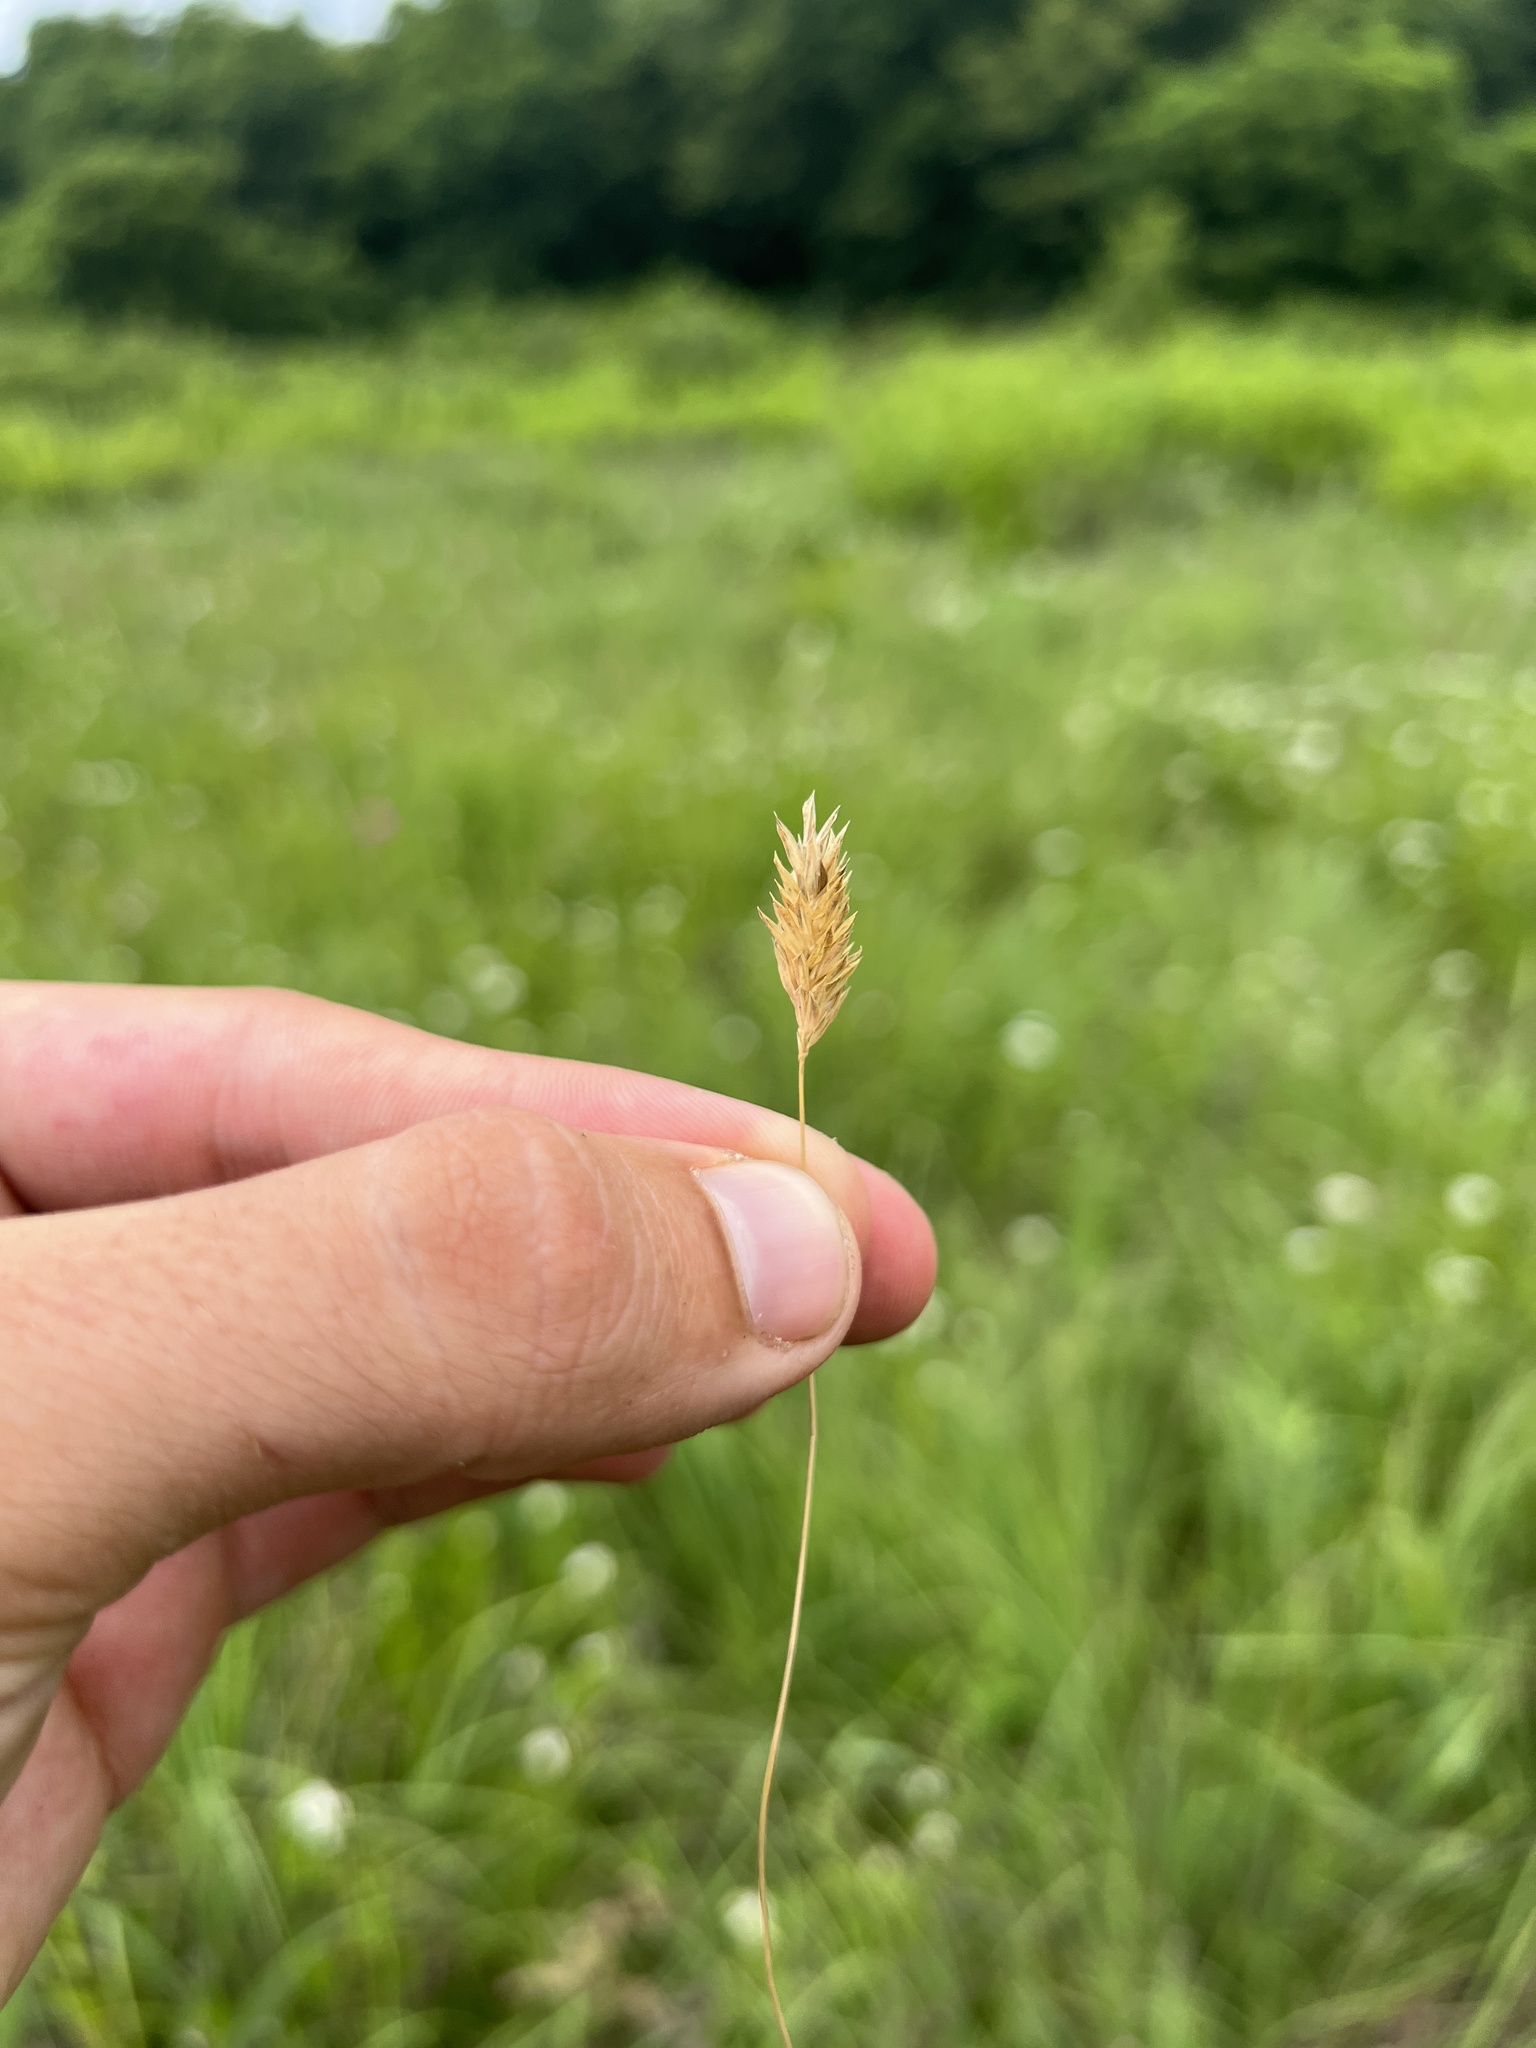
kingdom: Plantae
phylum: Tracheophyta
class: Liliopsida
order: Poales
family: Poaceae
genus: Phalaris
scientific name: Phalaris caroliniana
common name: May grass
